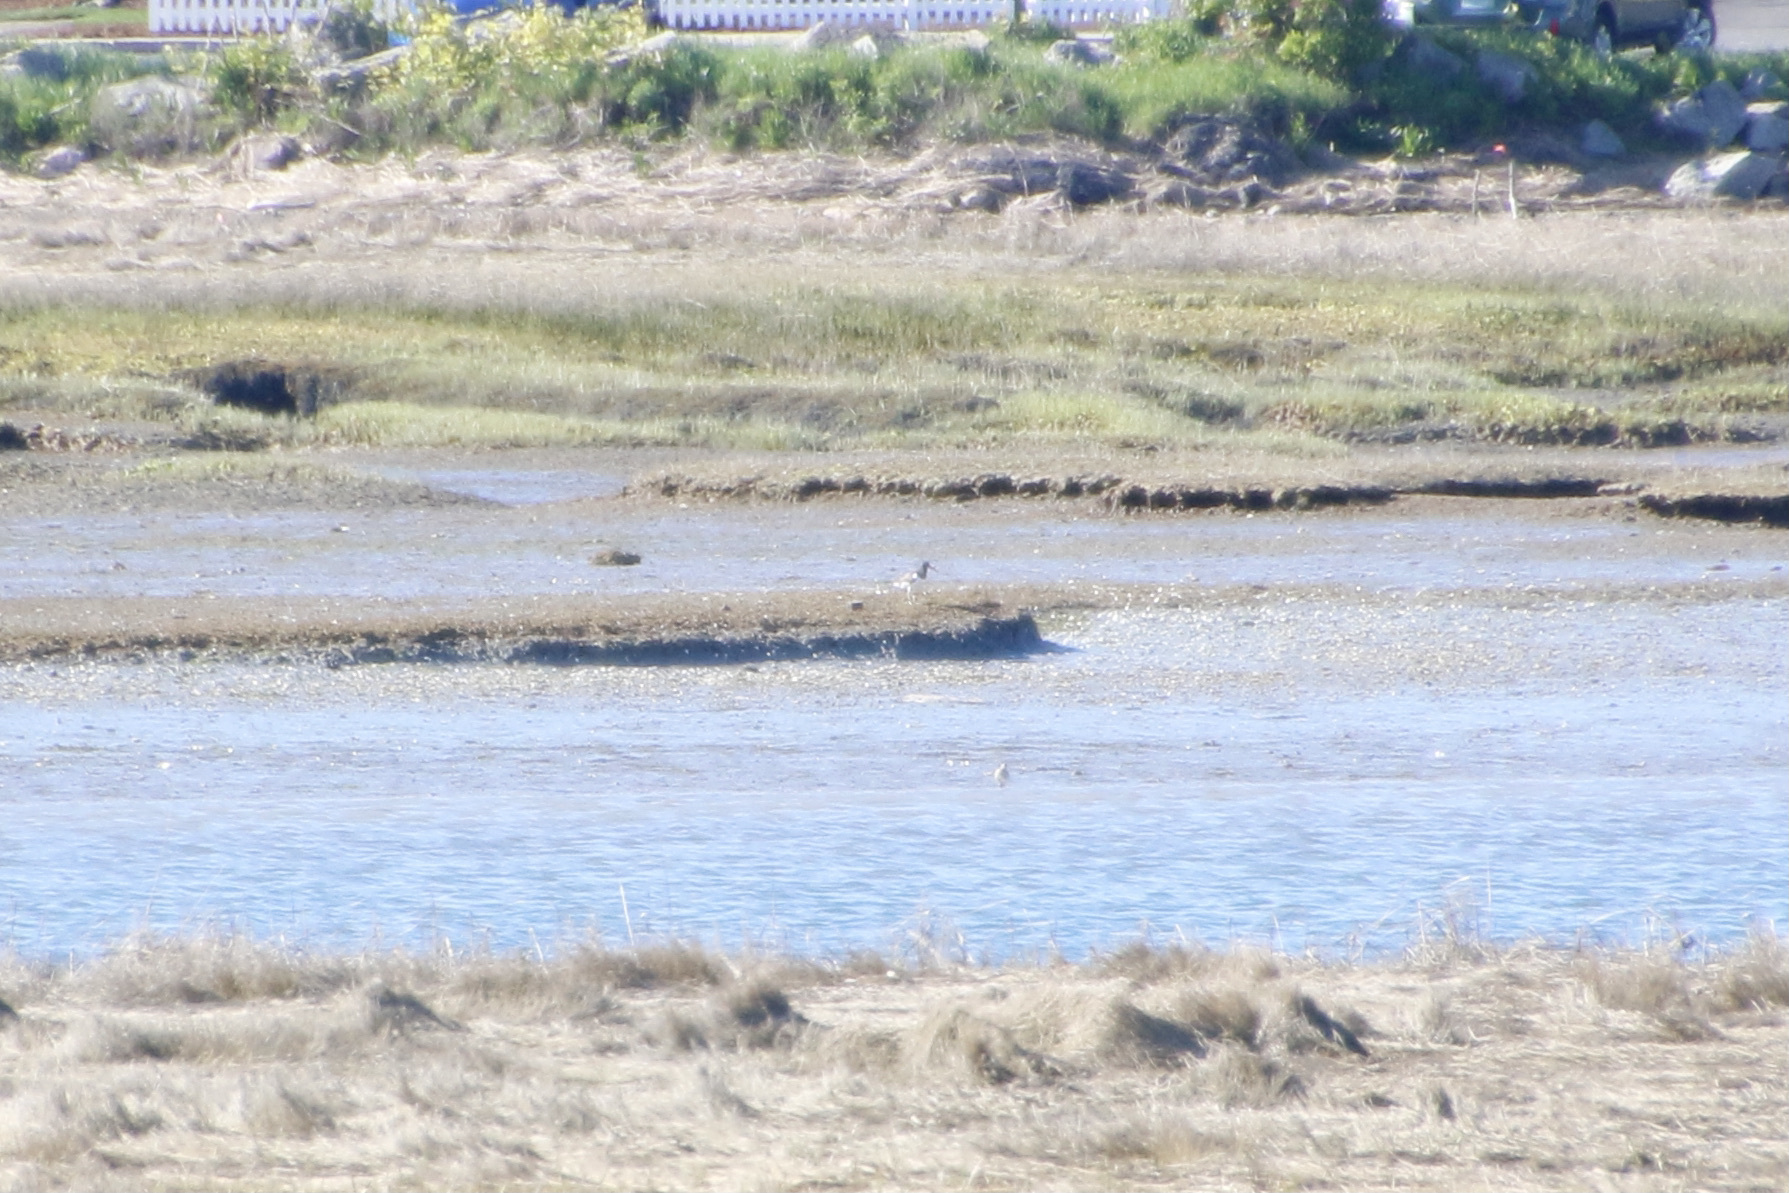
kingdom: Animalia
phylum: Chordata
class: Aves
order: Charadriiformes
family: Haematopodidae
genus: Haematopus
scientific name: Haematopus palliatus
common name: American oystercatcher
